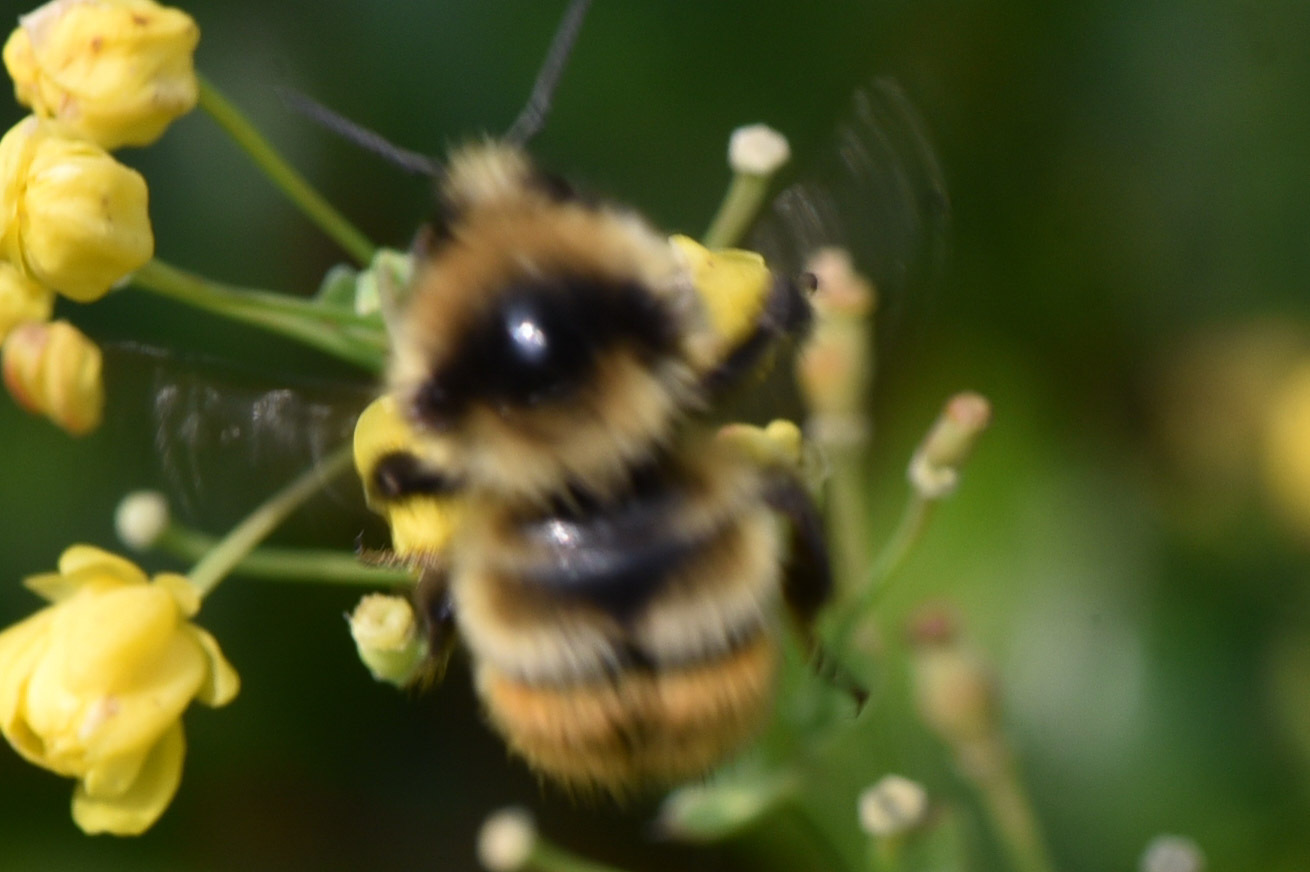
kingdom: Animalia
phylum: Arthropoda
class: Insecta
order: Hymenoptera
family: Apidae
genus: Bombus
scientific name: Bombus centralis
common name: Central bumble bee
